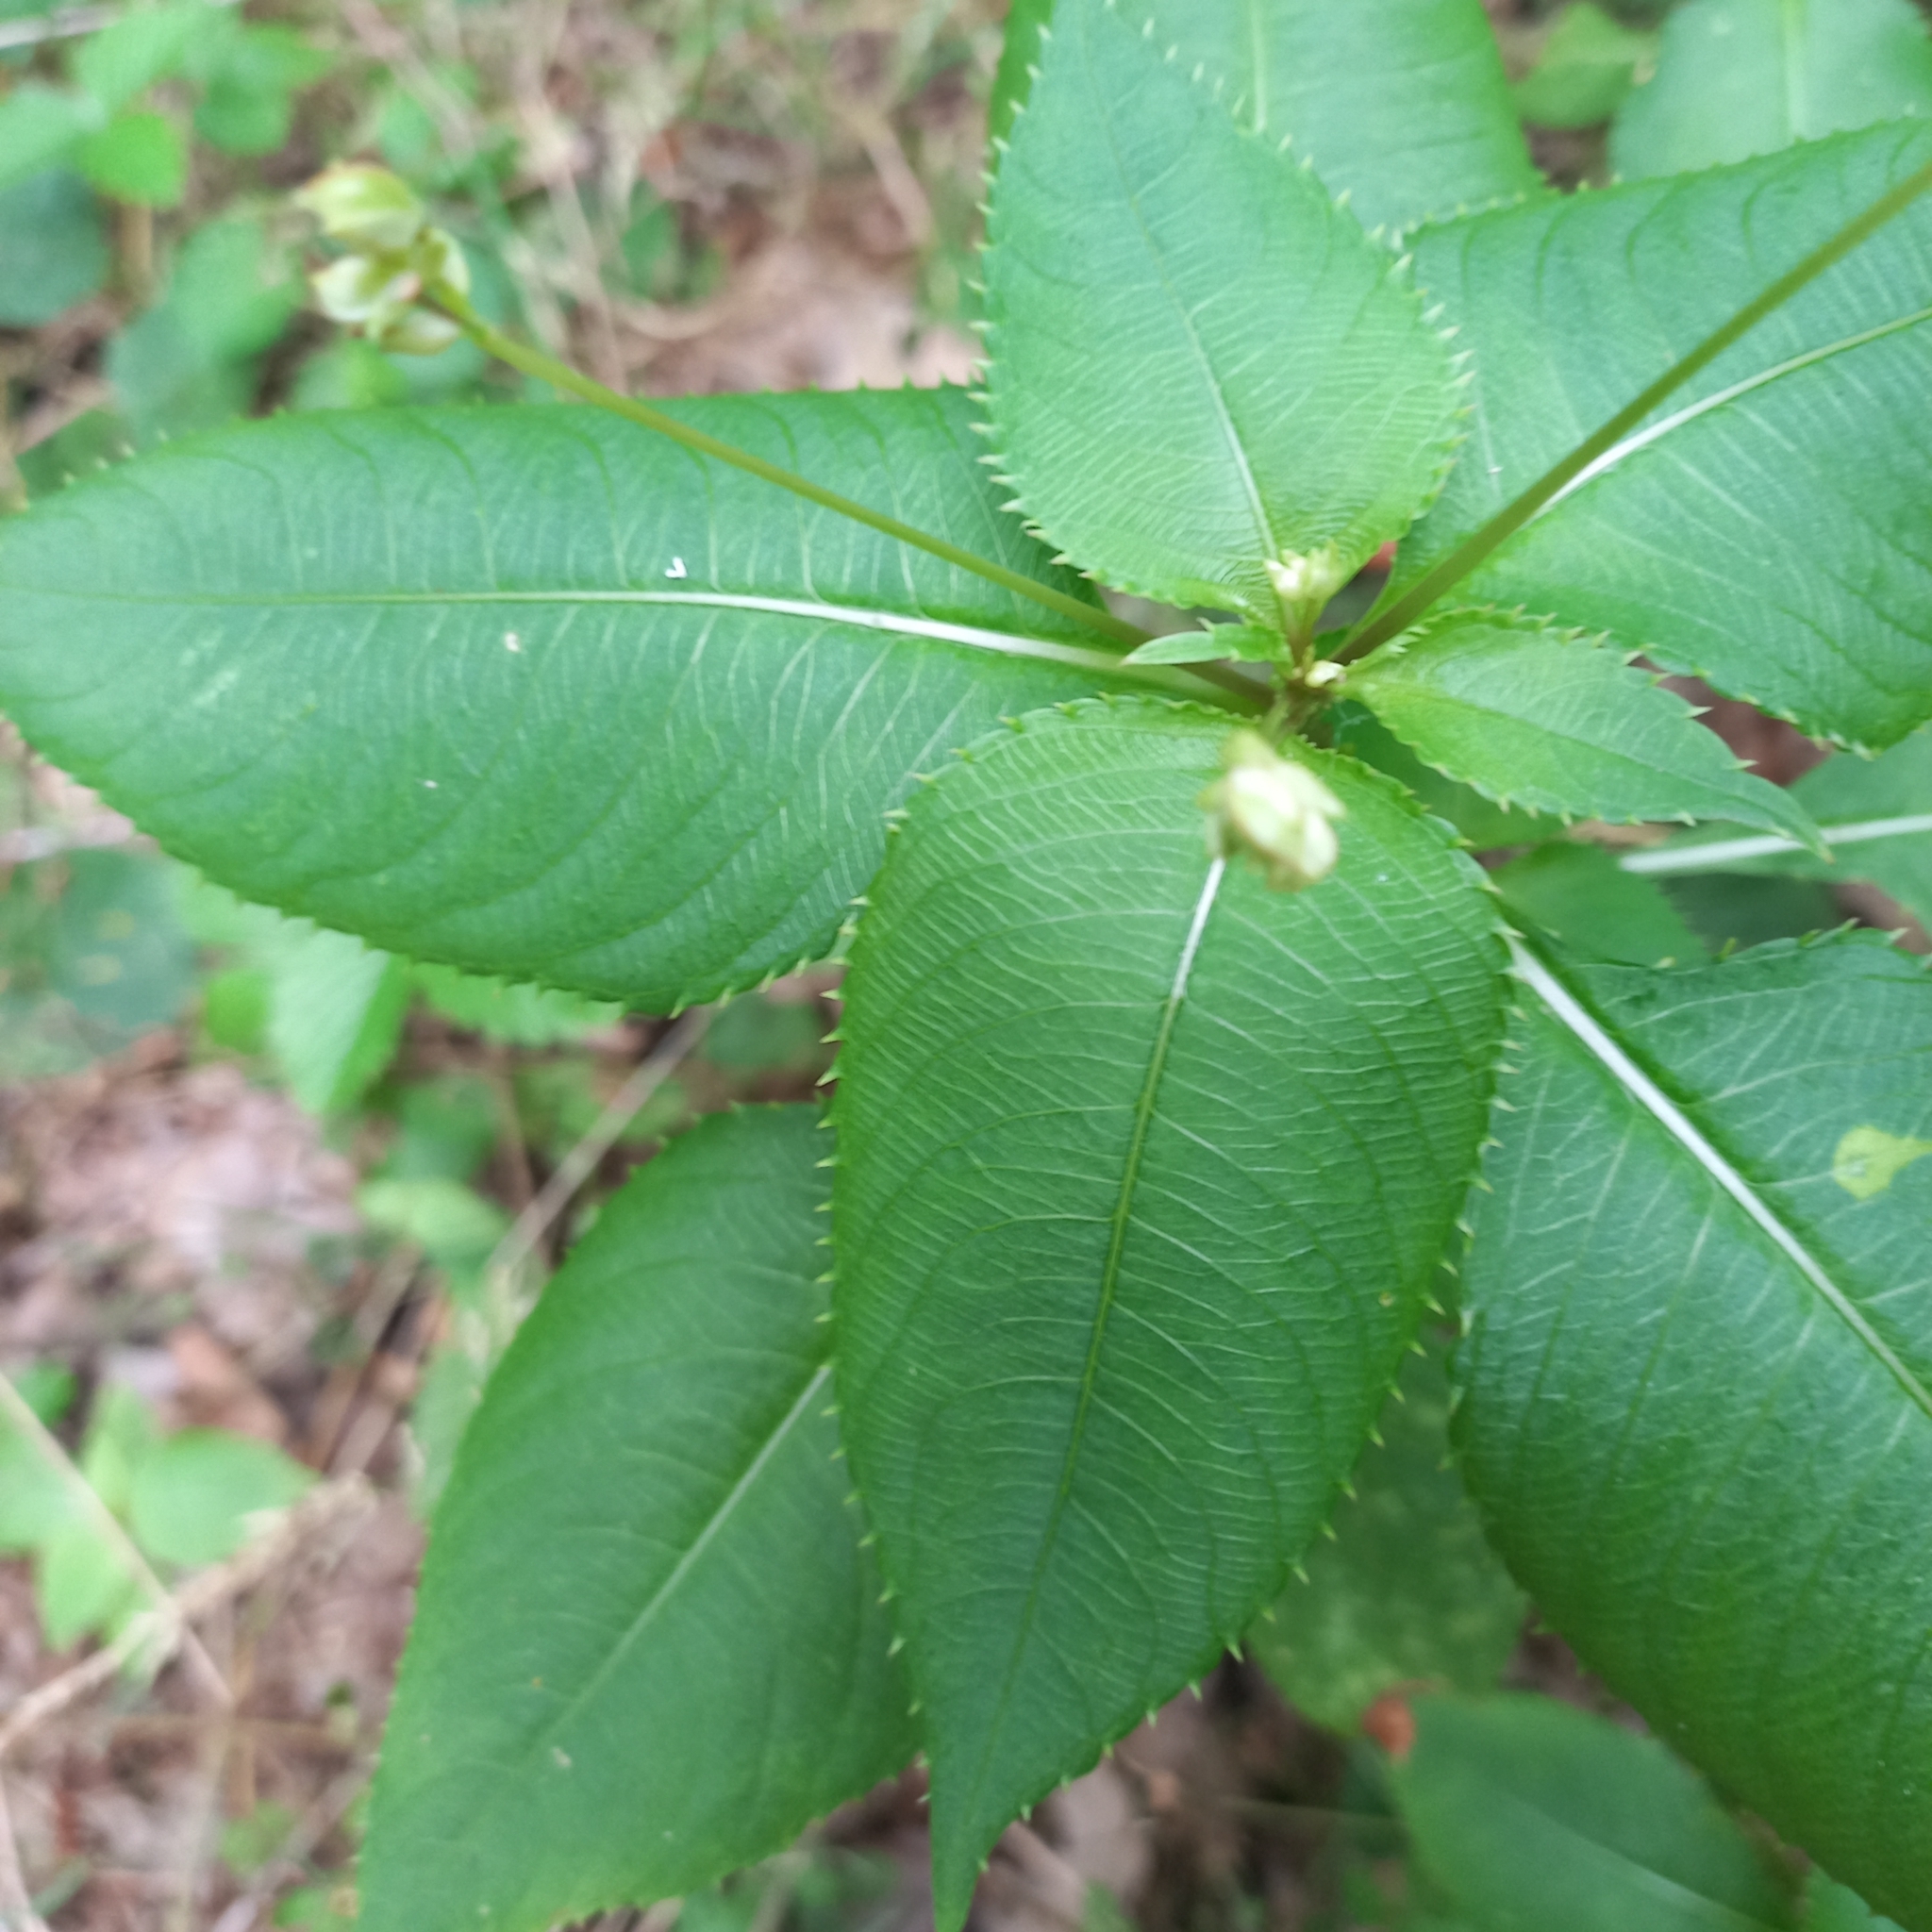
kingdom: Plantae
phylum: Tracheophyta
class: Magnoliopsida
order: Ericales
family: Balsaminaceae
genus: Impatiens
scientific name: Impatiens balfourii
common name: Balfour's touch-me-not
